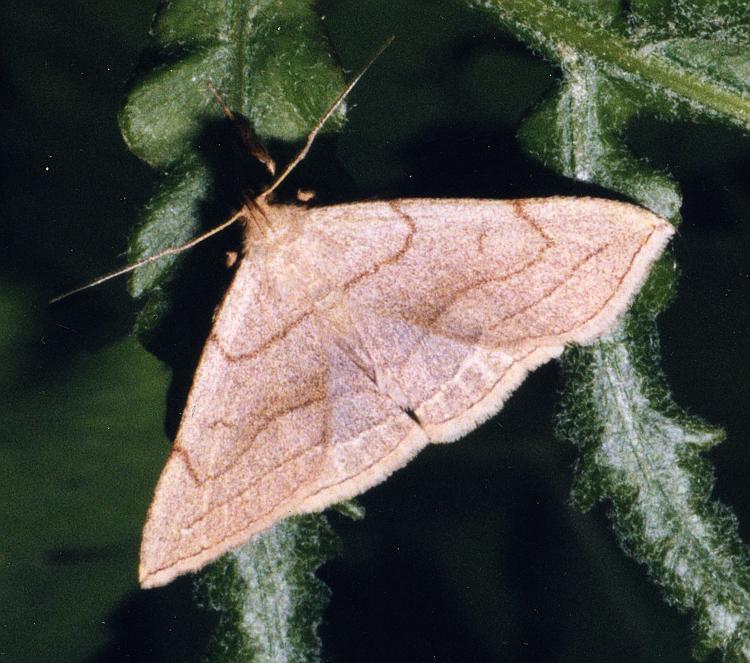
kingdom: Animalia
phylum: Arthropoda
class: Insecta
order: Lepidoptera
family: Erebidae
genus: Zanclognatha
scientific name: Zanclognatha pedipilalis
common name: Grayish fan-foot
